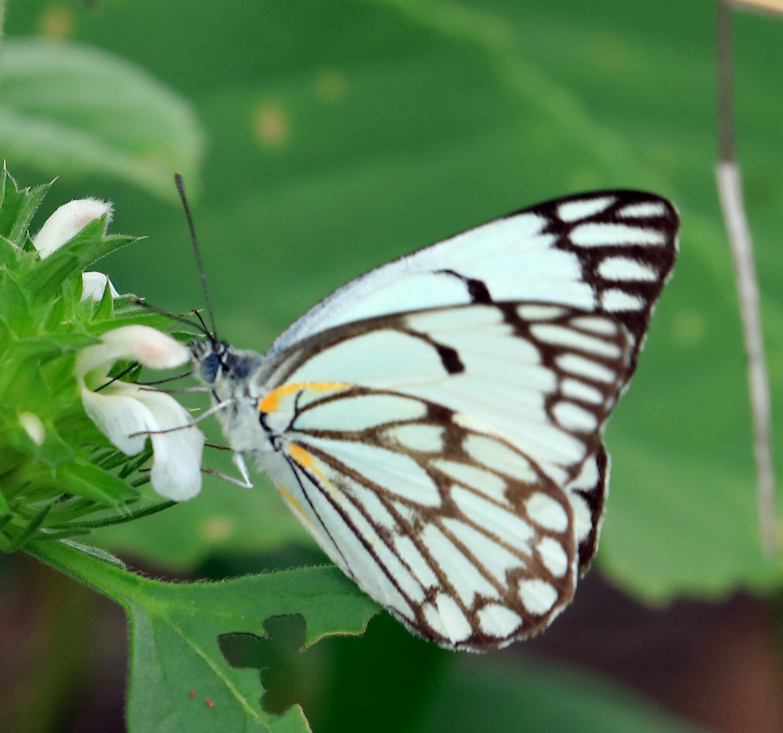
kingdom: Animalia
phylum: Arthropoda
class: Insecta
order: Lepidoptera
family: Pieridae
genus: Belenois
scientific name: Belenois aurota
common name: Brown-veined white
